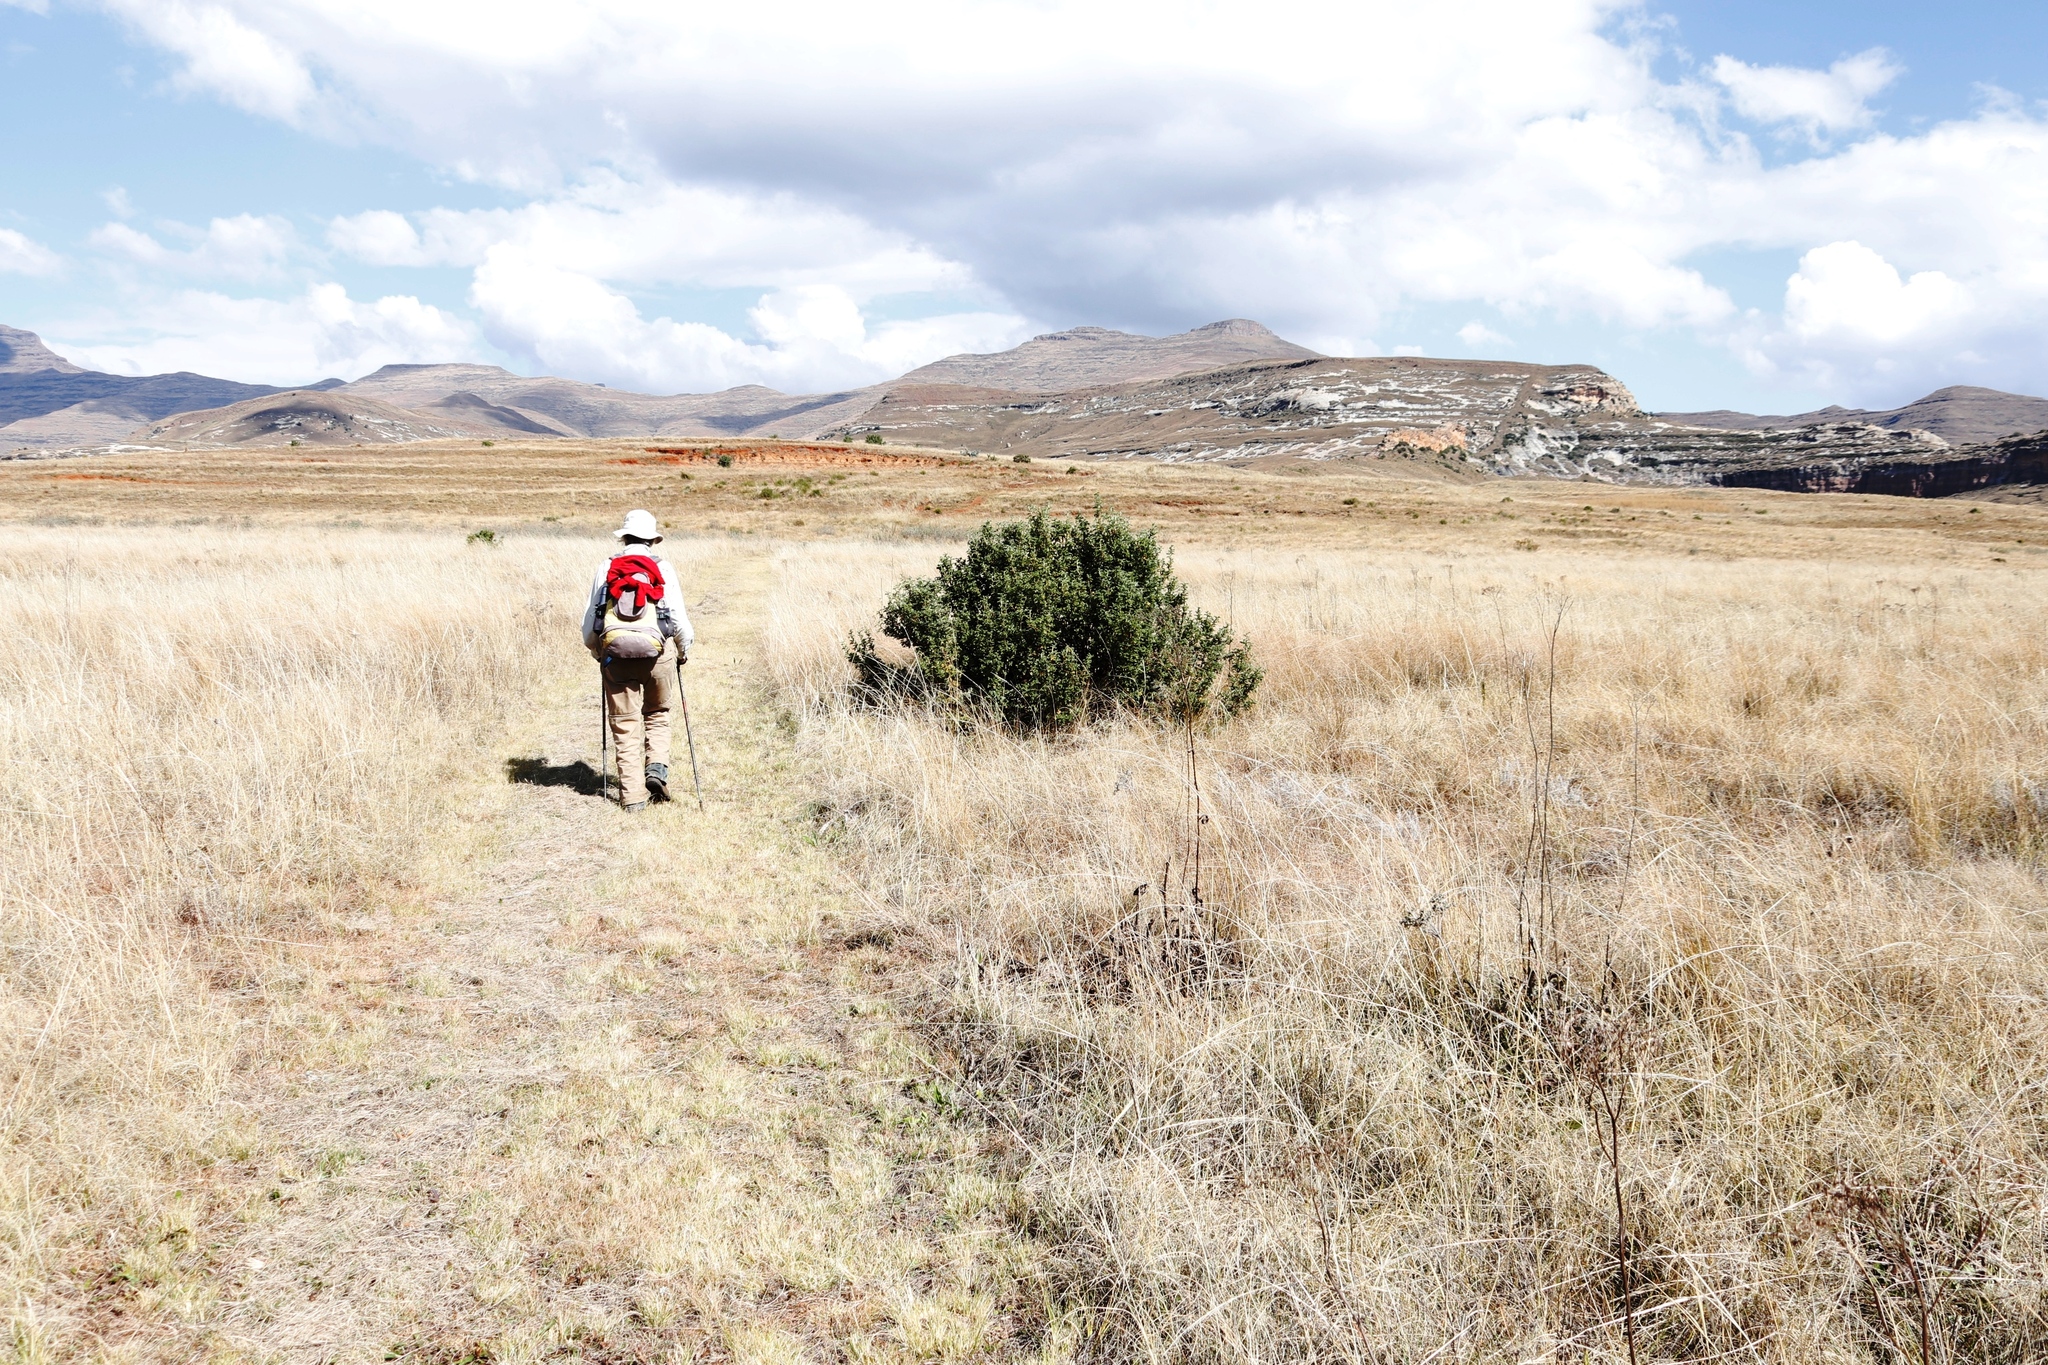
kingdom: Plantae
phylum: Tracheophyta
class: Magnoliopsida
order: Rosales
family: Rosaceae
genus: Leucosidea
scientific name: Leucosidea sericea
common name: Oldwood
